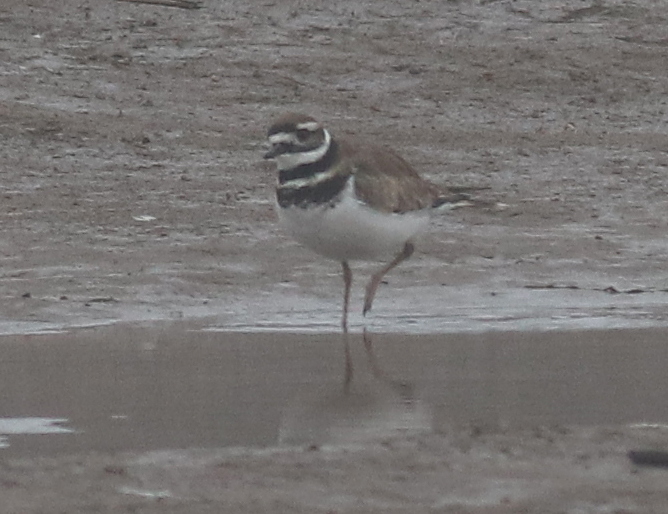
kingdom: Animalia
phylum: Chordata
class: Aves
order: Charadriiformes
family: Charadriidae
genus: Charadrius
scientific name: Charadrius vociferus
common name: Killdeer
